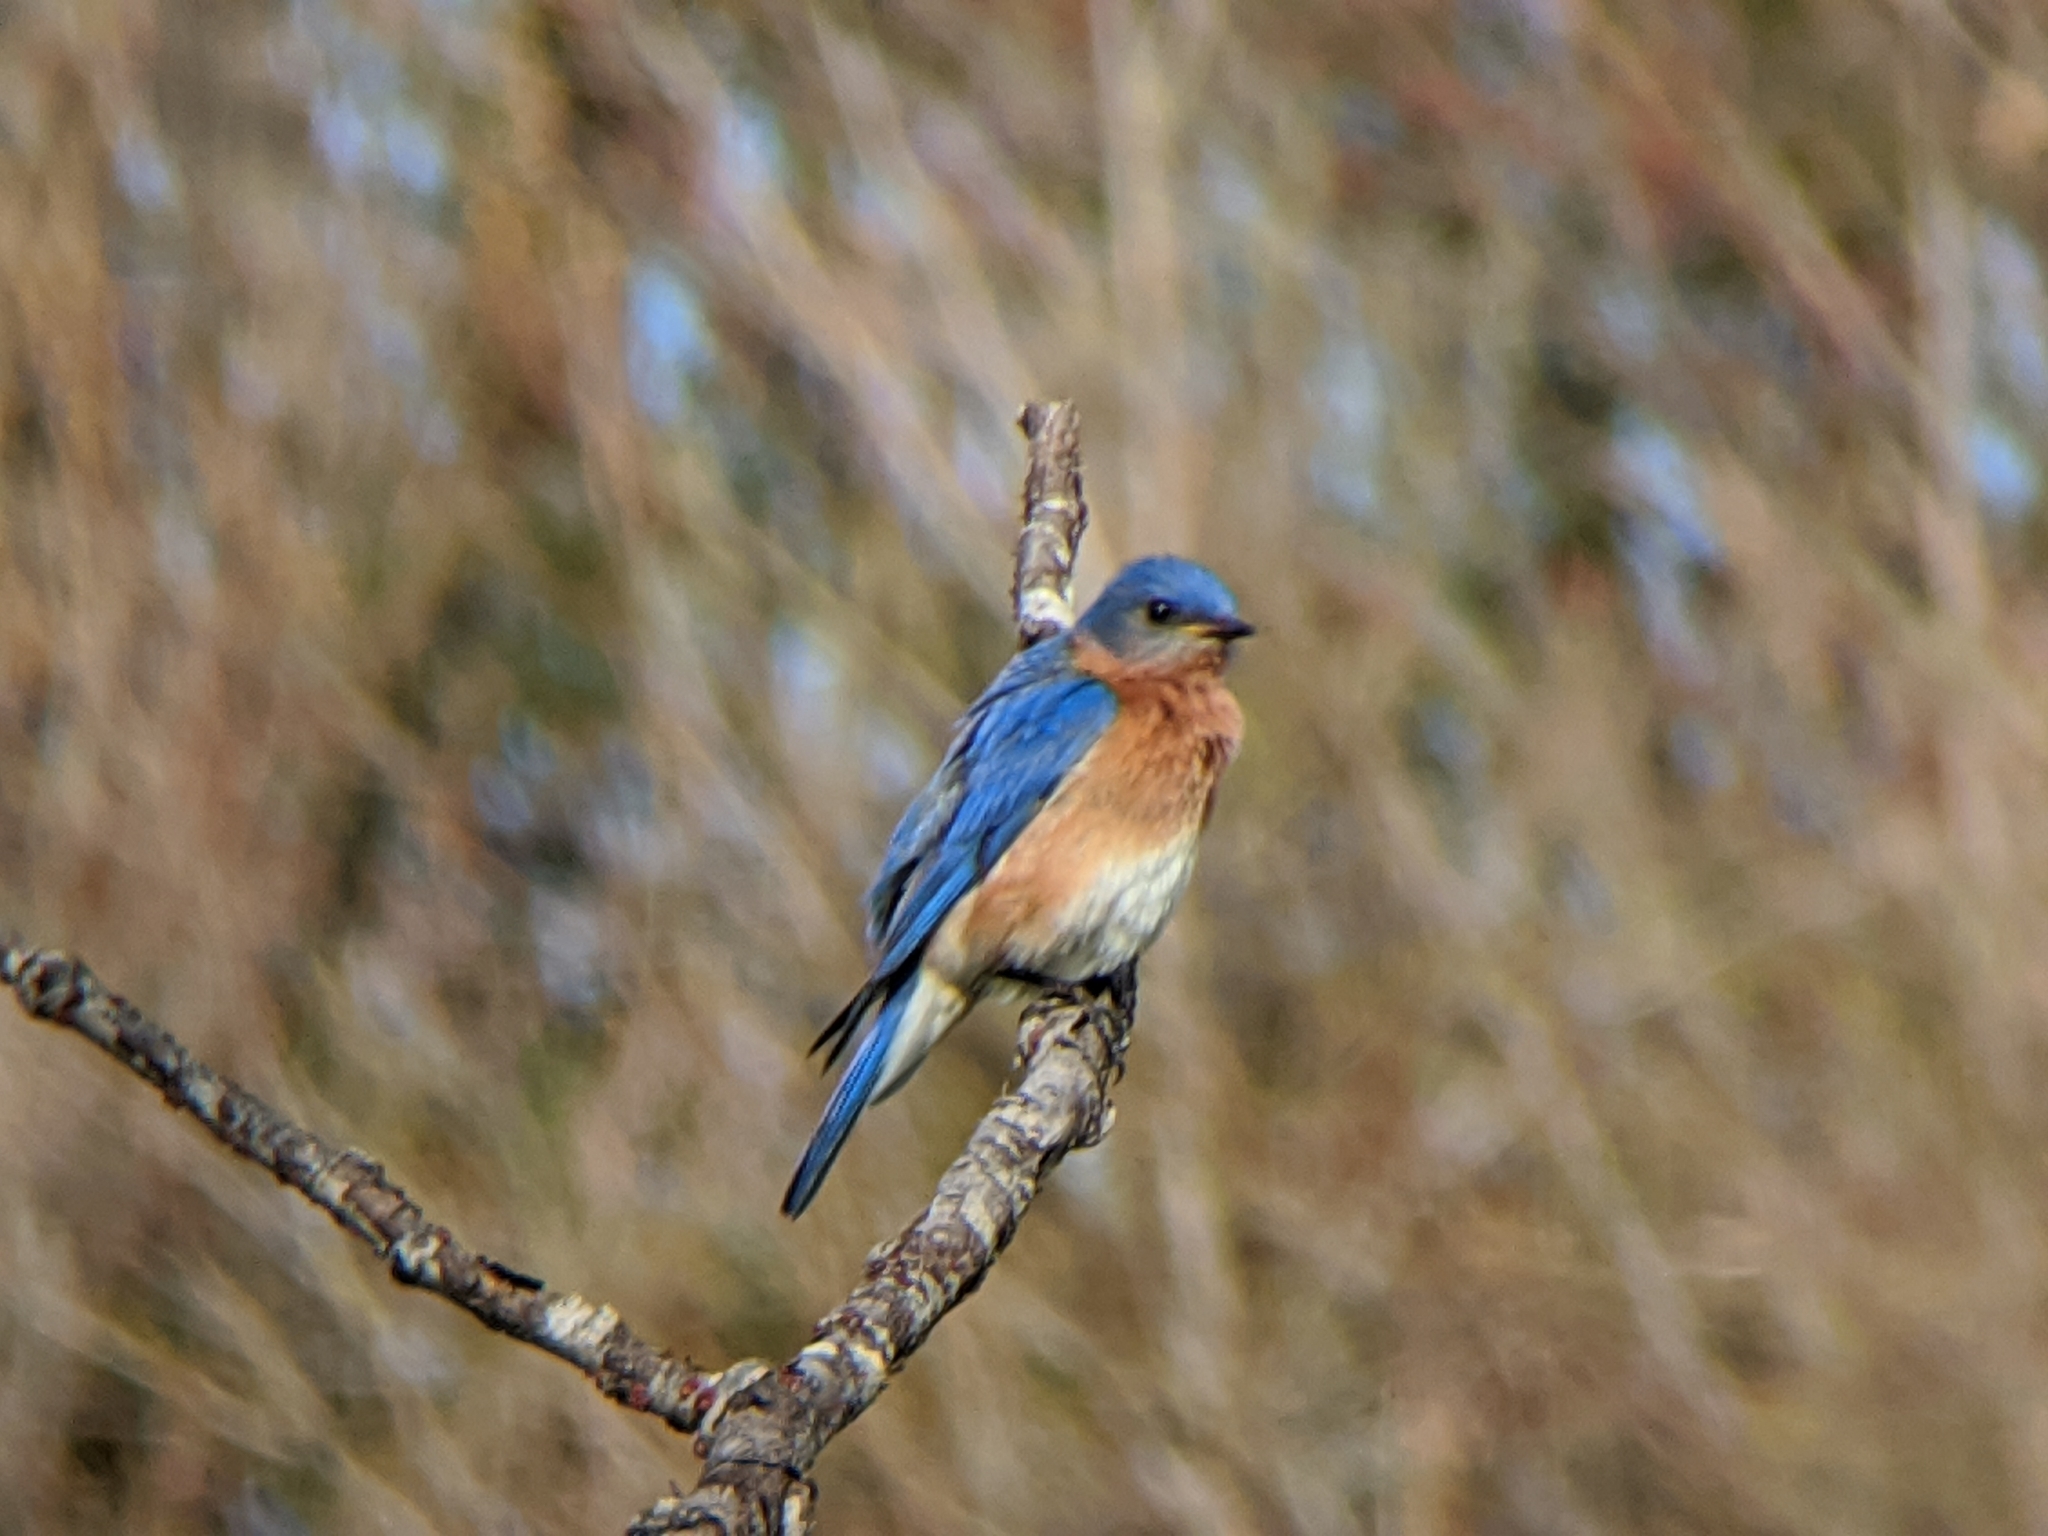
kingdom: Animalia
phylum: Chordata
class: Aves
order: Passeriformes
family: Turdidae
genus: Sialia
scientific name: Sialia sialis
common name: Eastern bluebird
